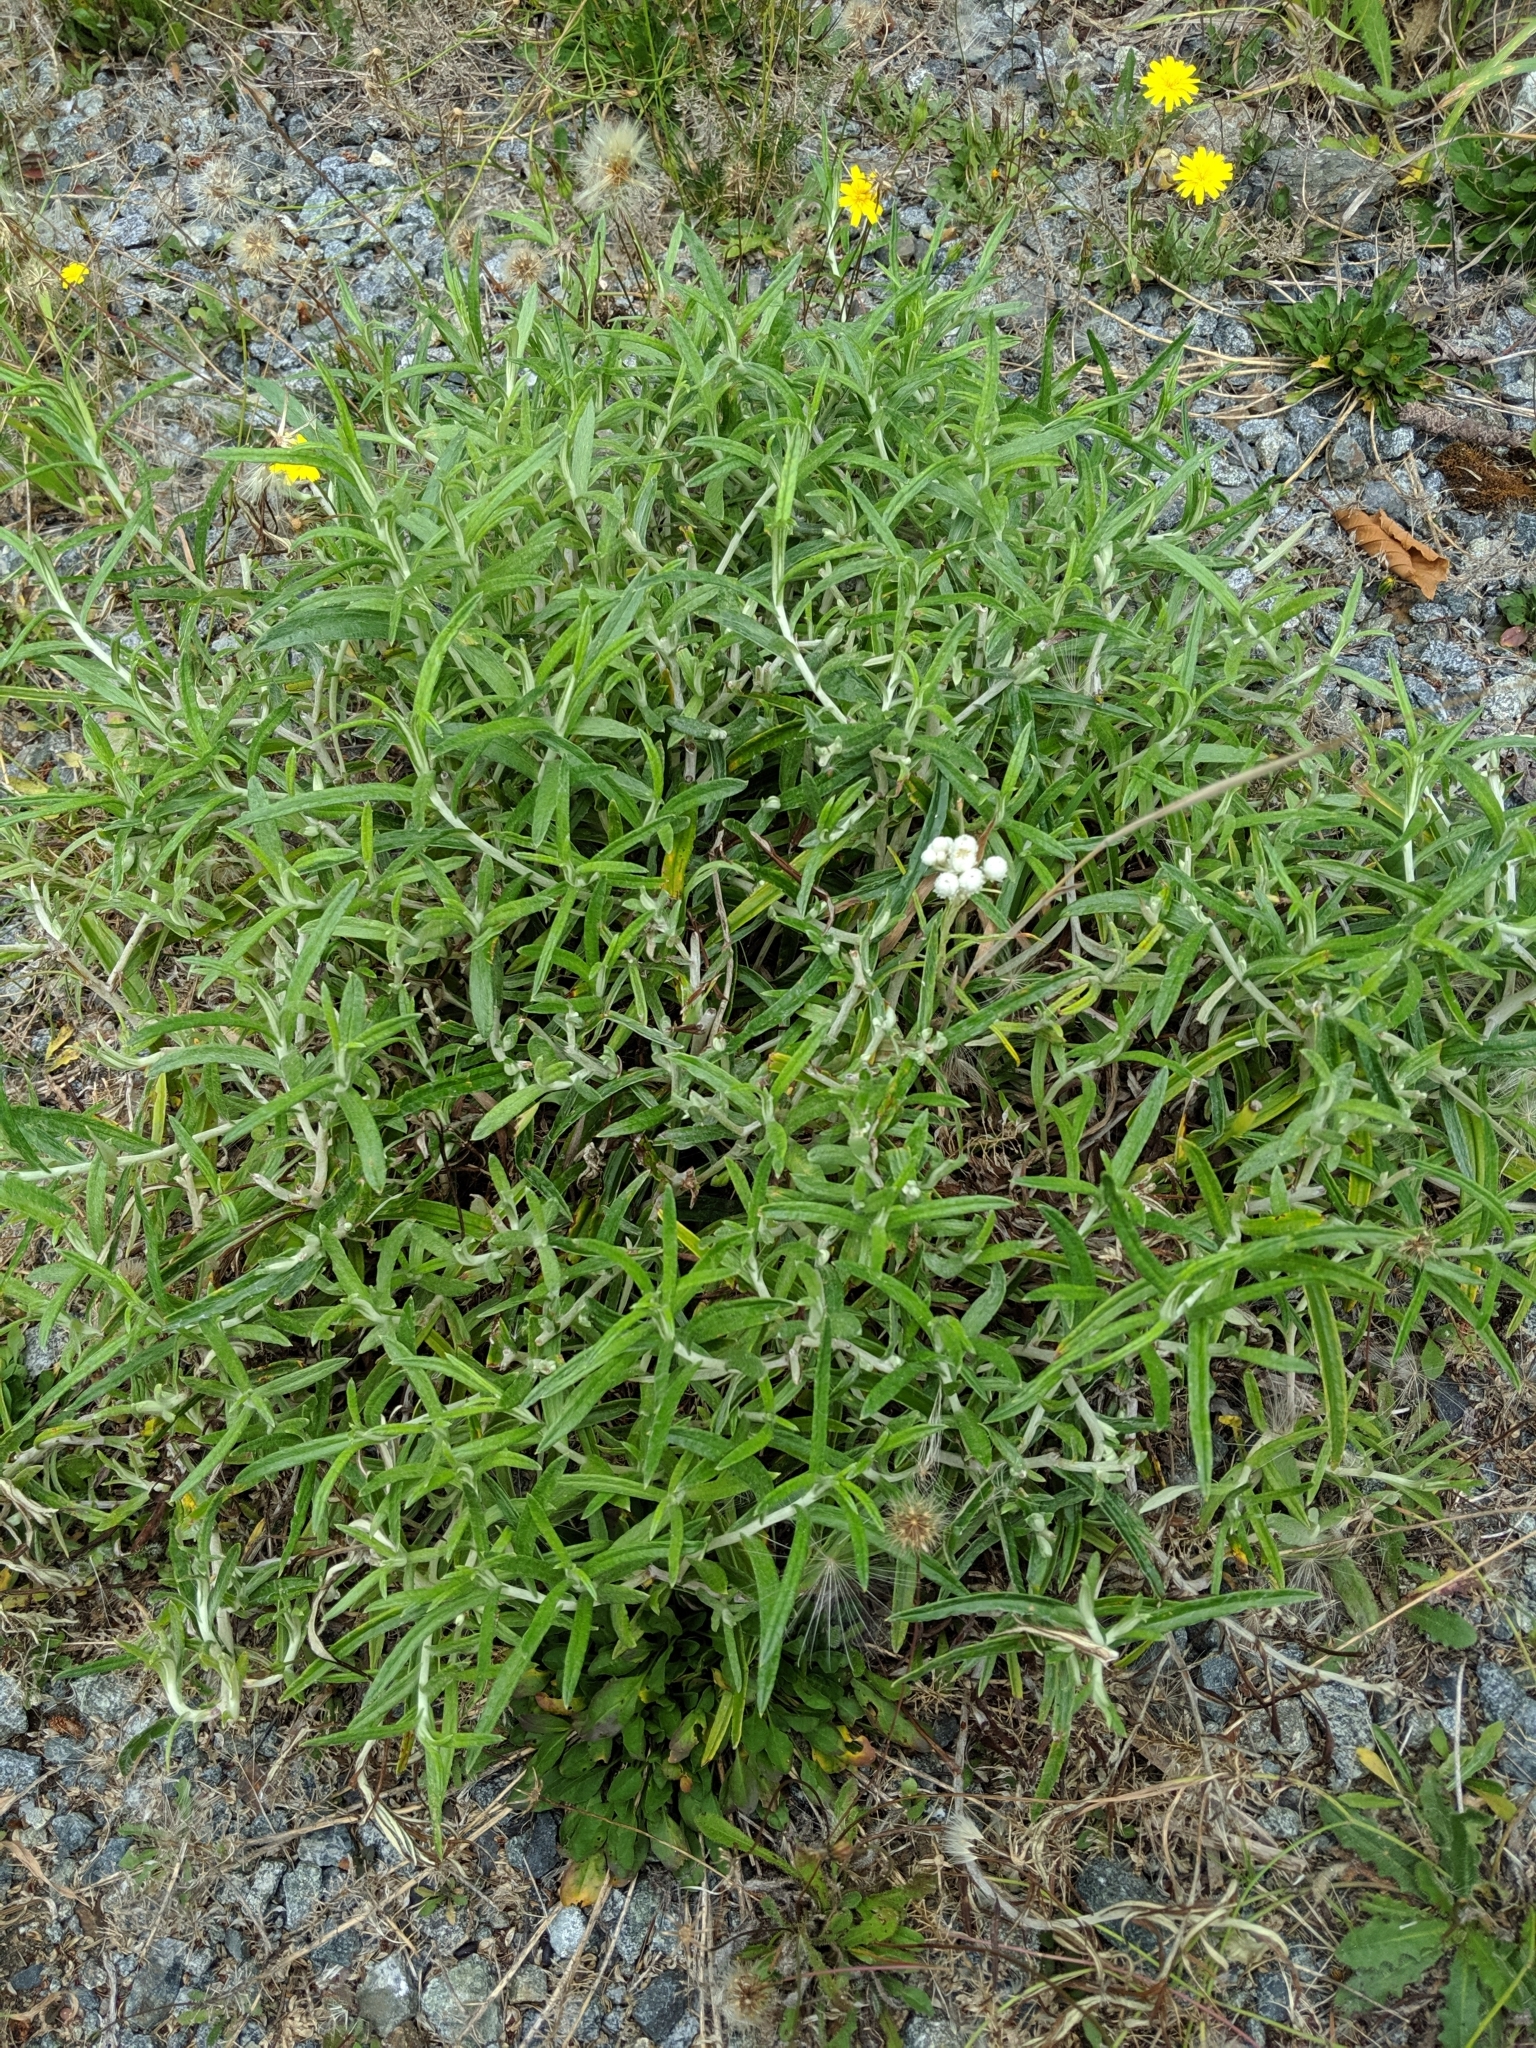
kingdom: Plantae
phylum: Tracheophyta
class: Magnoliopsida
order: Asterales
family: Asteraceae
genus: Anaphalis
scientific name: Anaphalis margaritacea
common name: Pearly everlasting
